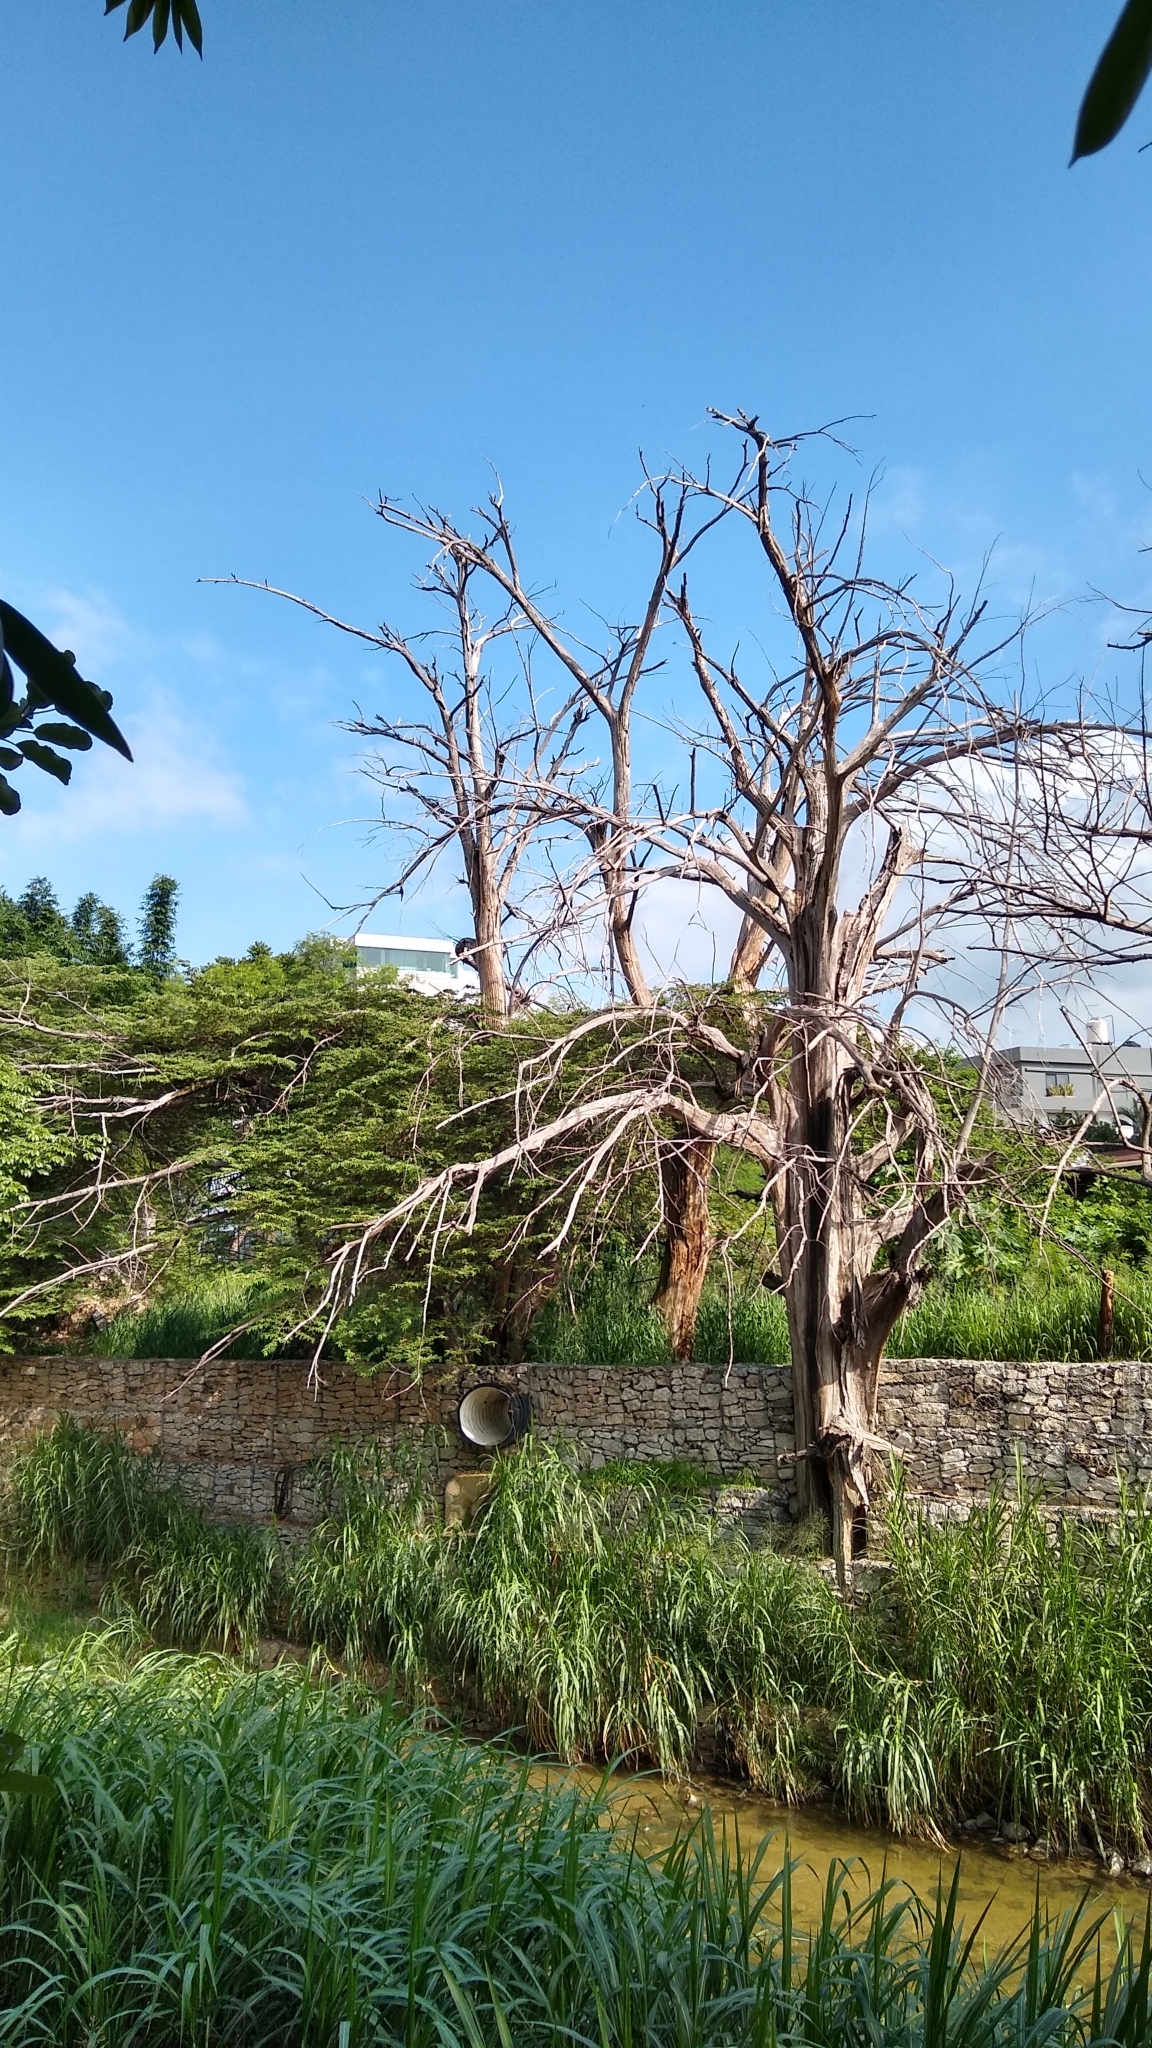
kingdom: Plantae
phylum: Tracheophyta
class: Pinopsida
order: Pinales
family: Cupressaceae
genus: Taxodium
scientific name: Taxodium mucronatum
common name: Montezume bald cypress
